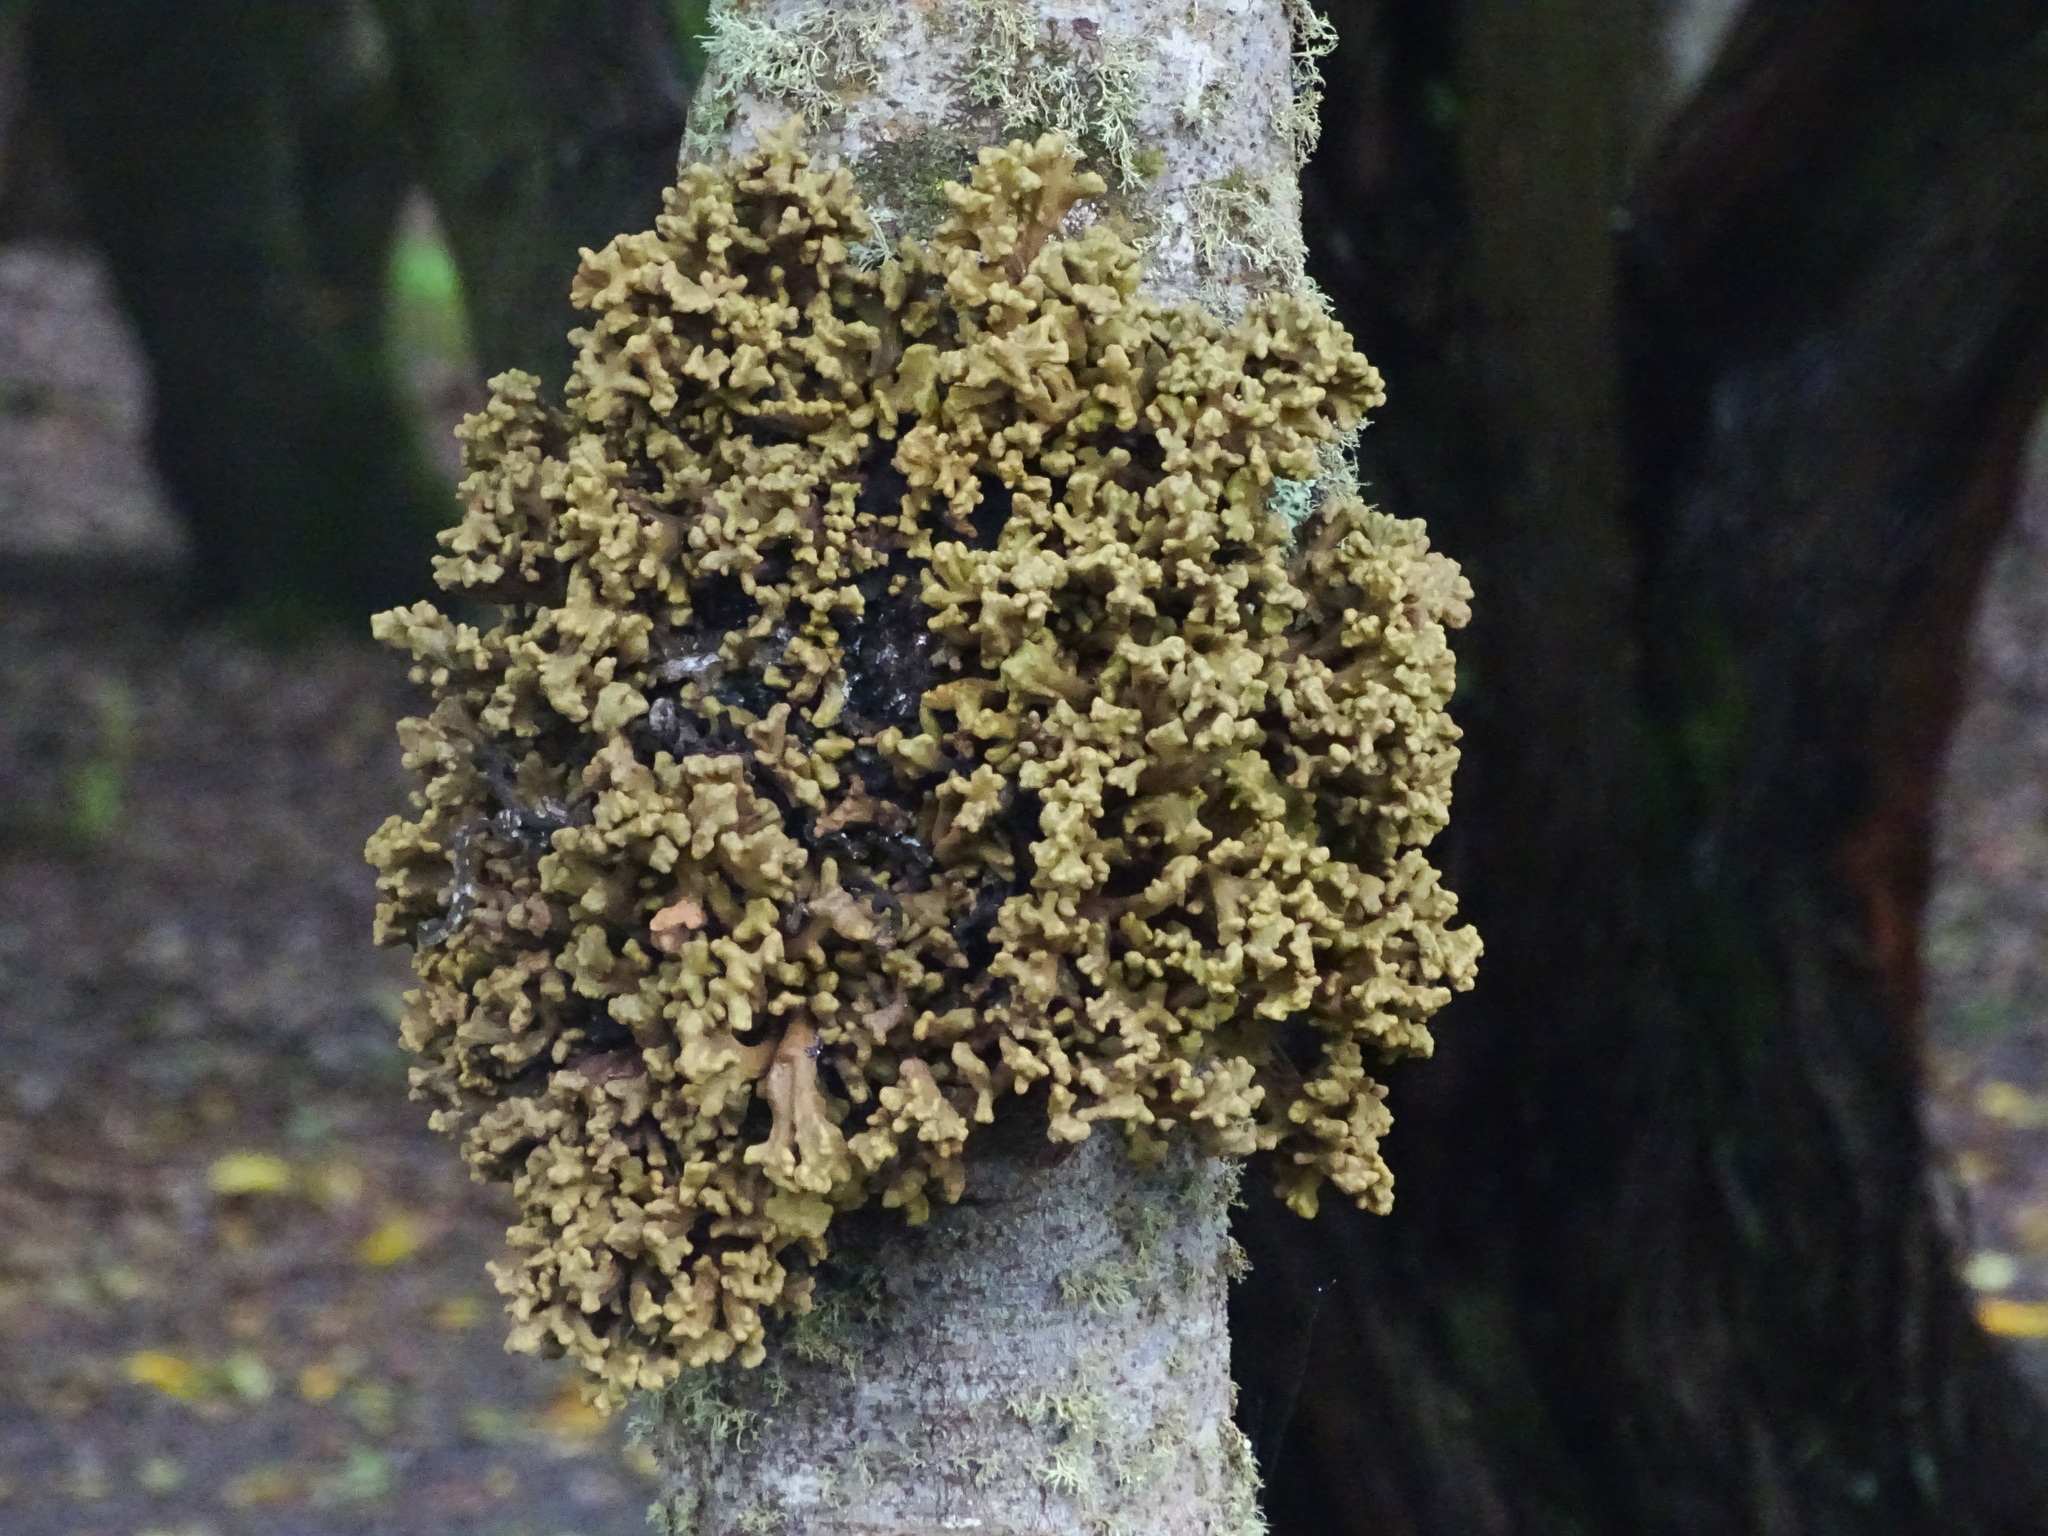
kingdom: Fungi
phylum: Basidiomycota
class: Exobasidiomycetes
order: Exobasidiales
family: Laurobasidiaceae
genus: Laurobasidium
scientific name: Laurobasidium lauri
